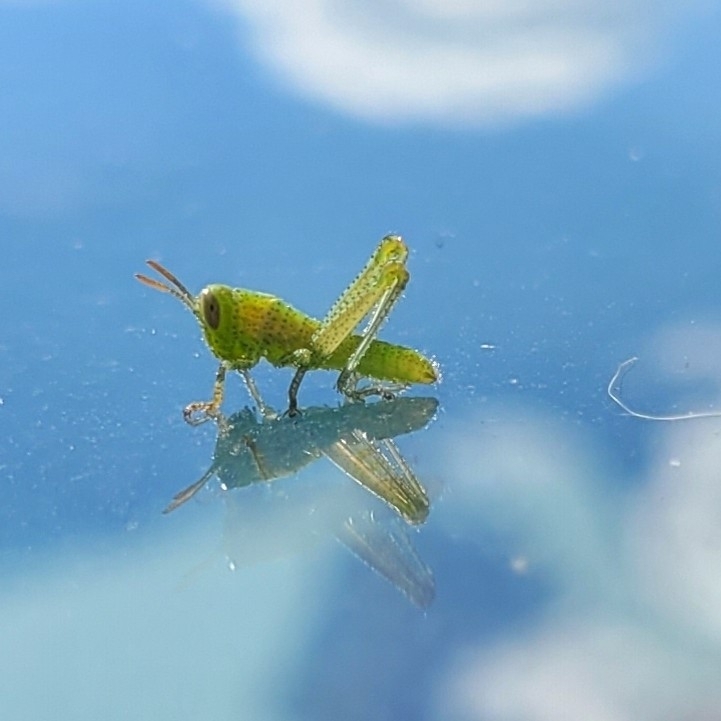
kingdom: Animalia
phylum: Arthropoda
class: Insecta
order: Orthoptera
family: Acrididae
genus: Anacridium
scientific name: Anacridium aegyptium
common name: Egyptian grasshopper
